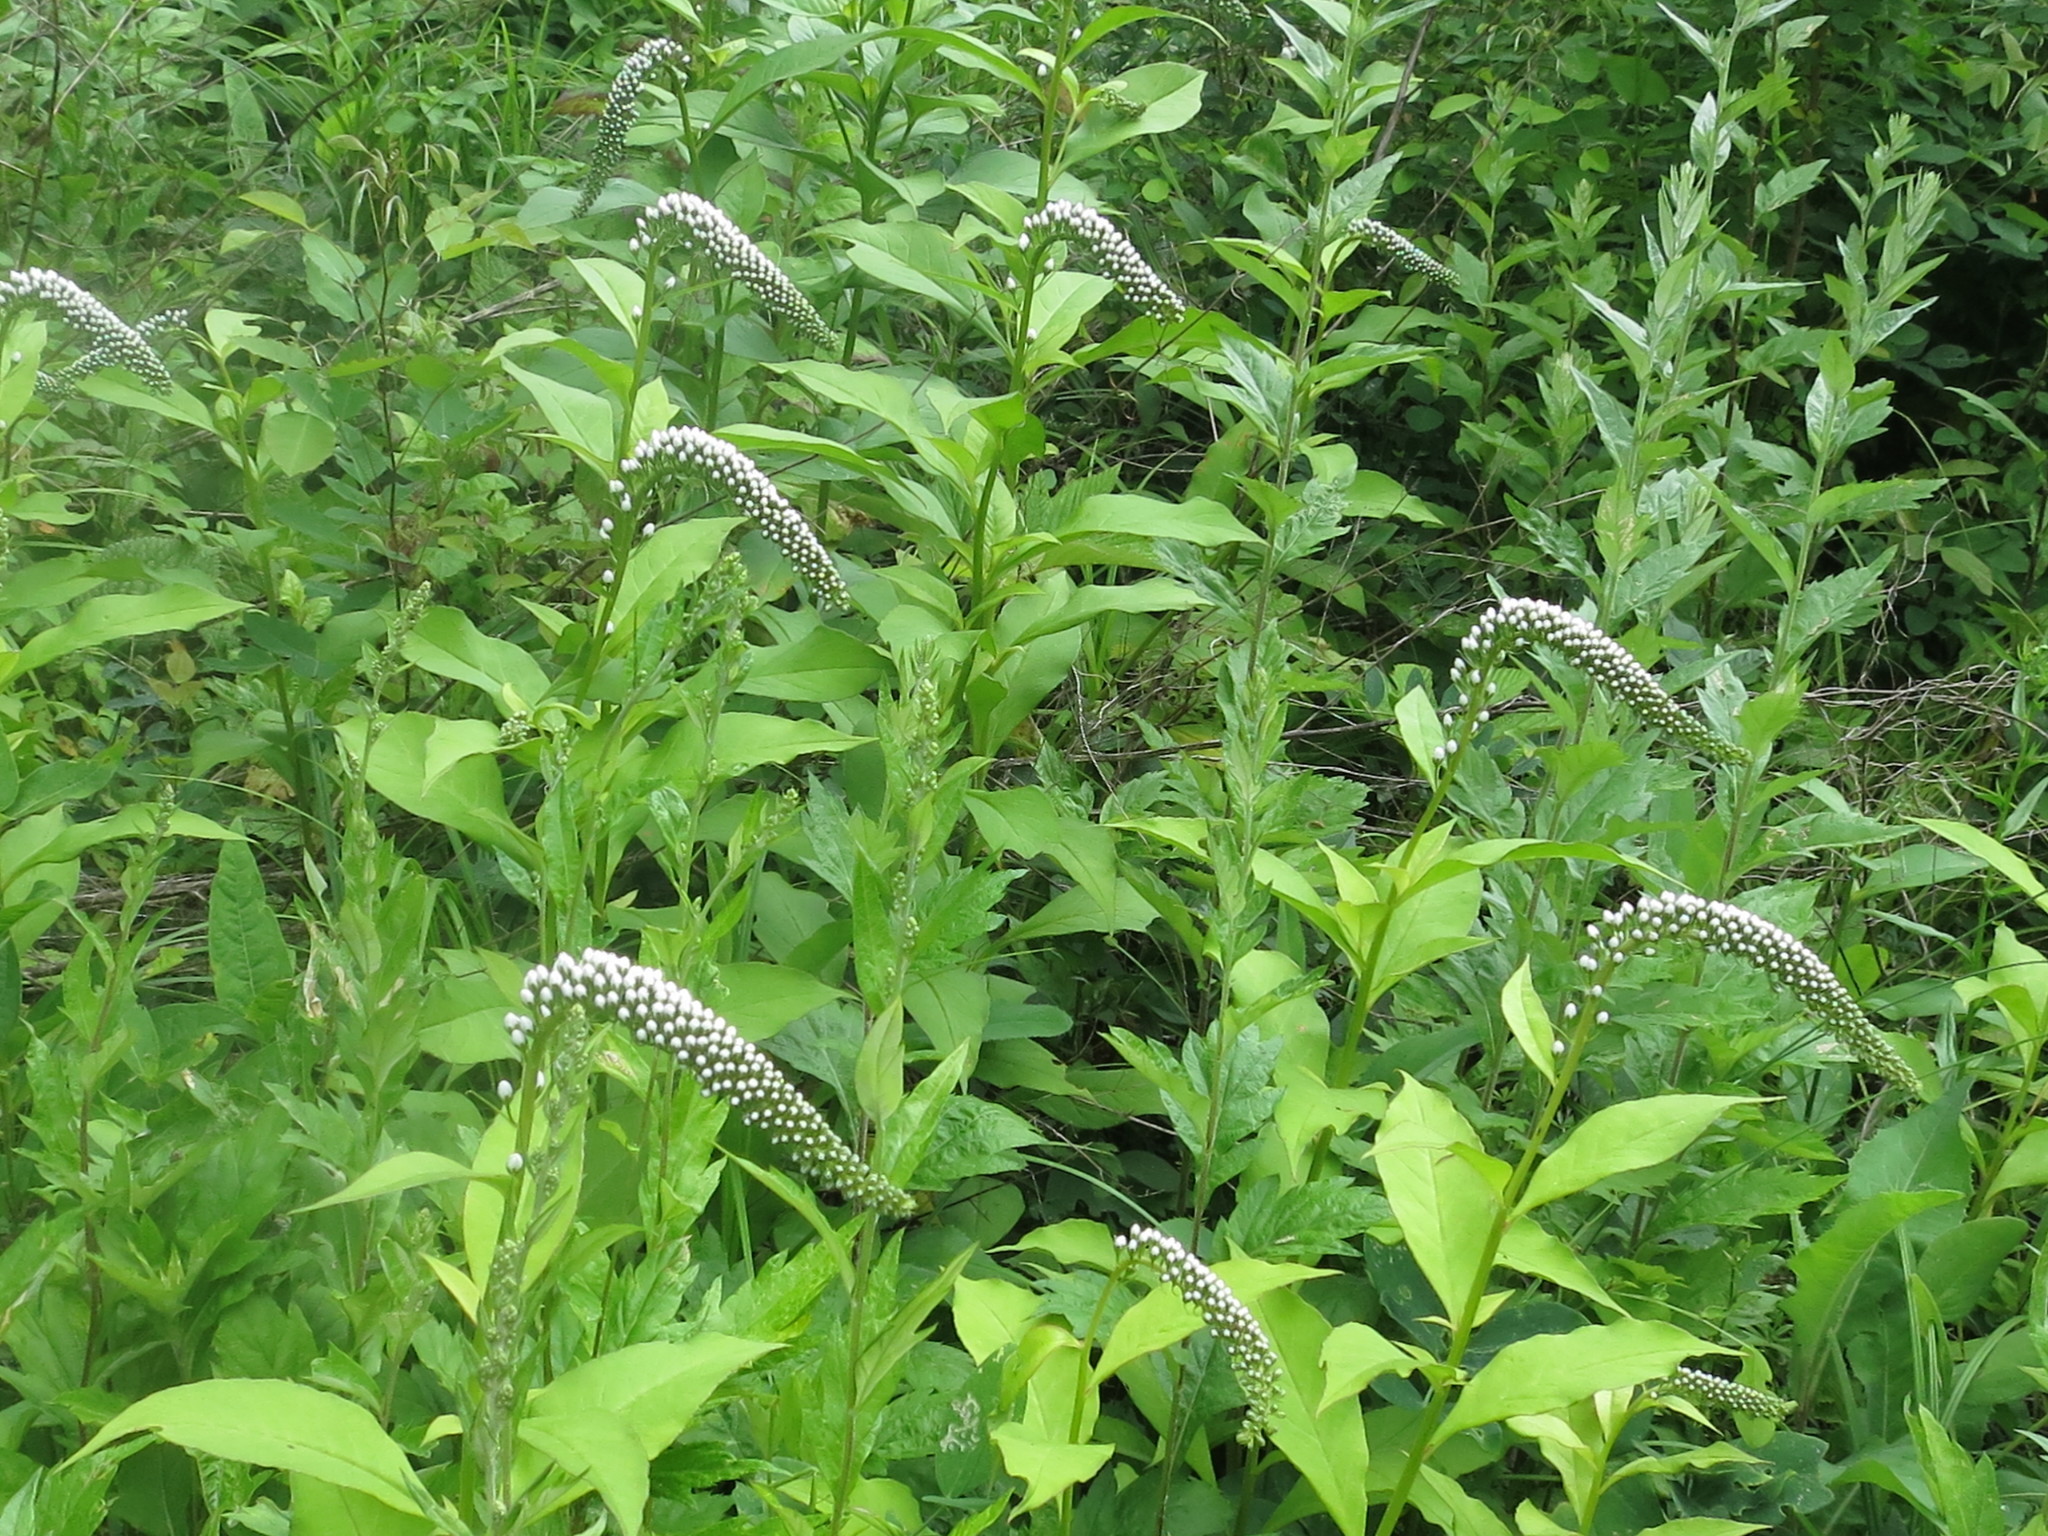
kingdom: Plantae
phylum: Tracheophyta
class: Magnoliopsida
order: Ericales
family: Primulaceae
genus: Lysimachia
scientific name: Lysimachia clethroides
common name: Gooseneck loosestrife
